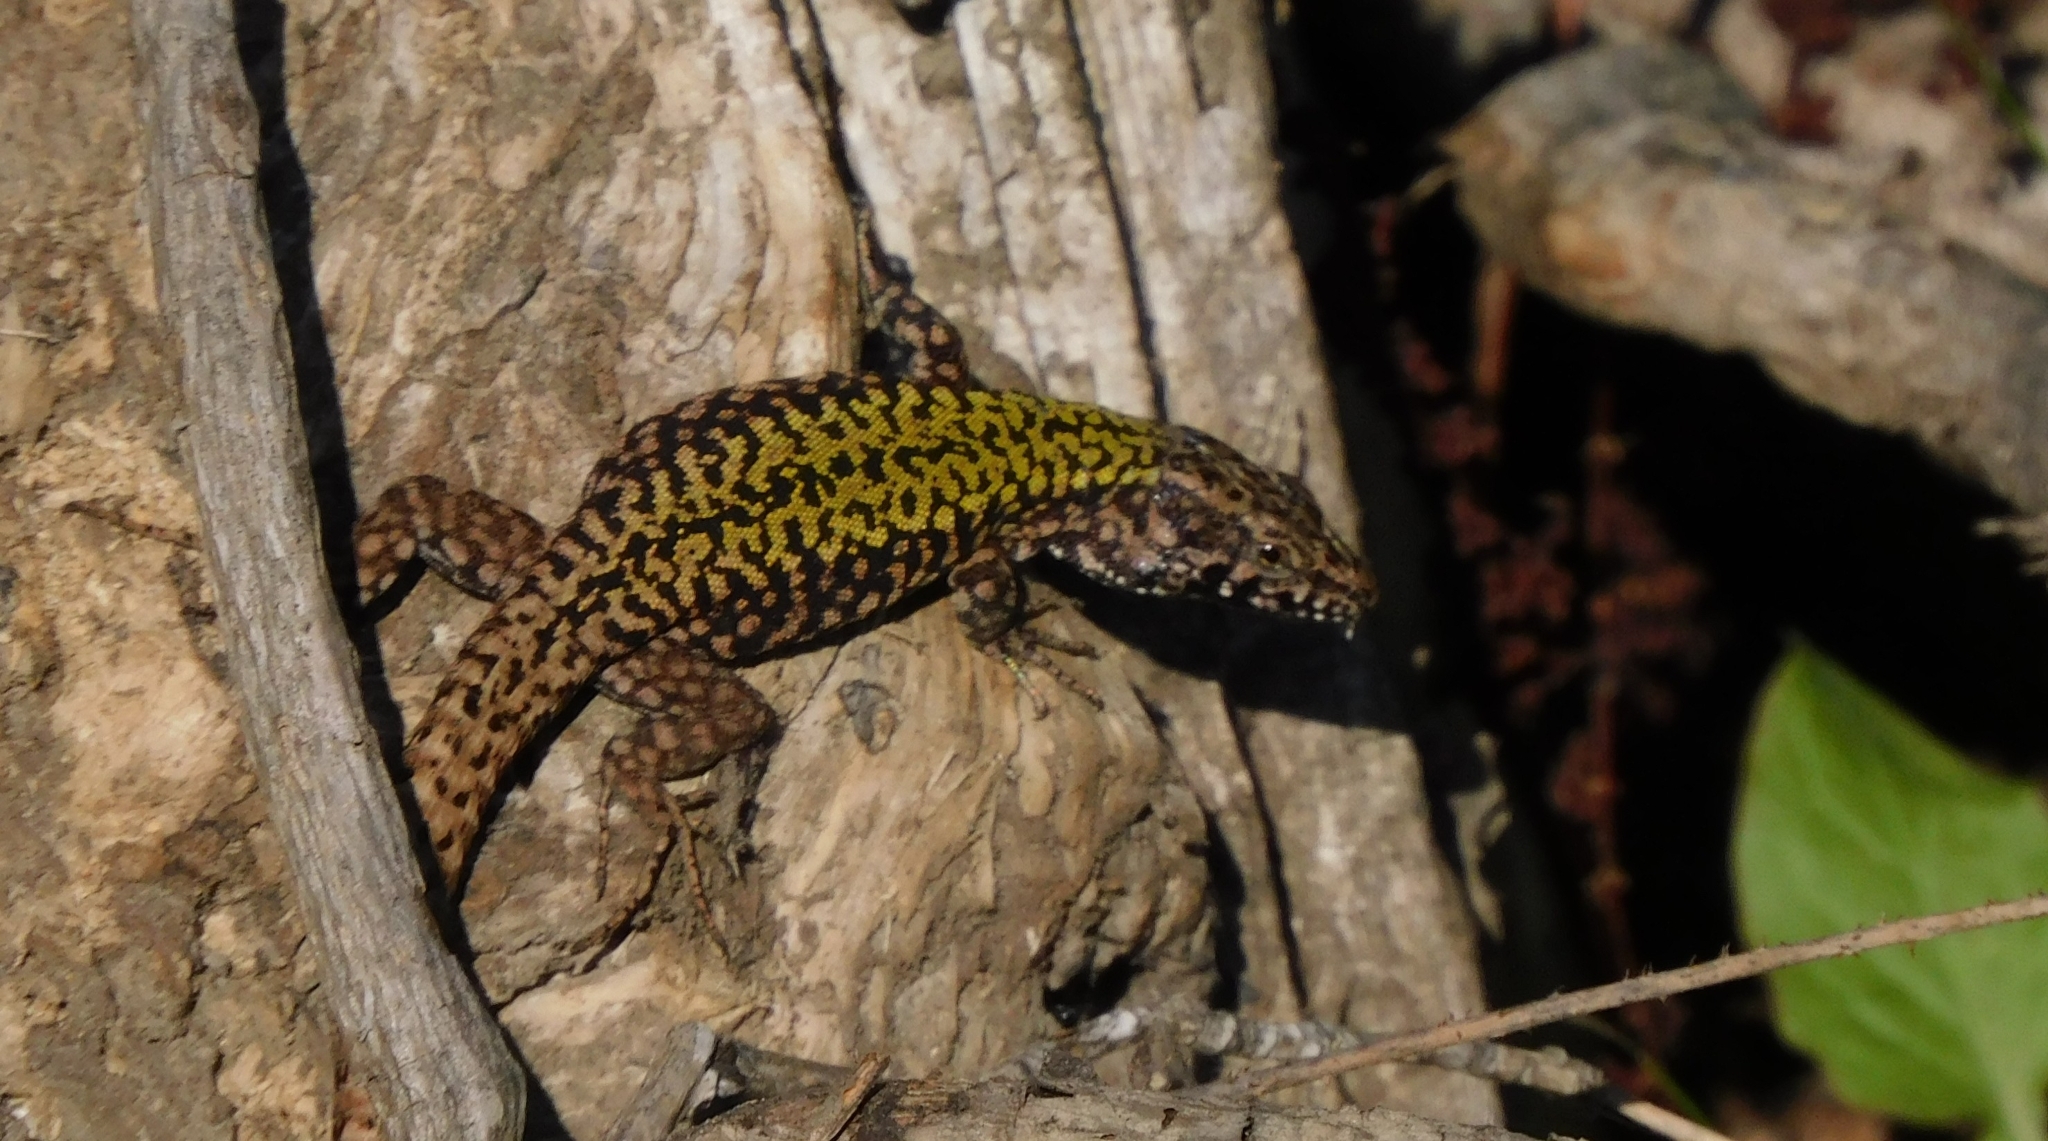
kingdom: Animalia
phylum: Chordata
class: Squamata
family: Lacertidae
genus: Podarcis
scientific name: Podarcis muralis
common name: Common wall lizard
